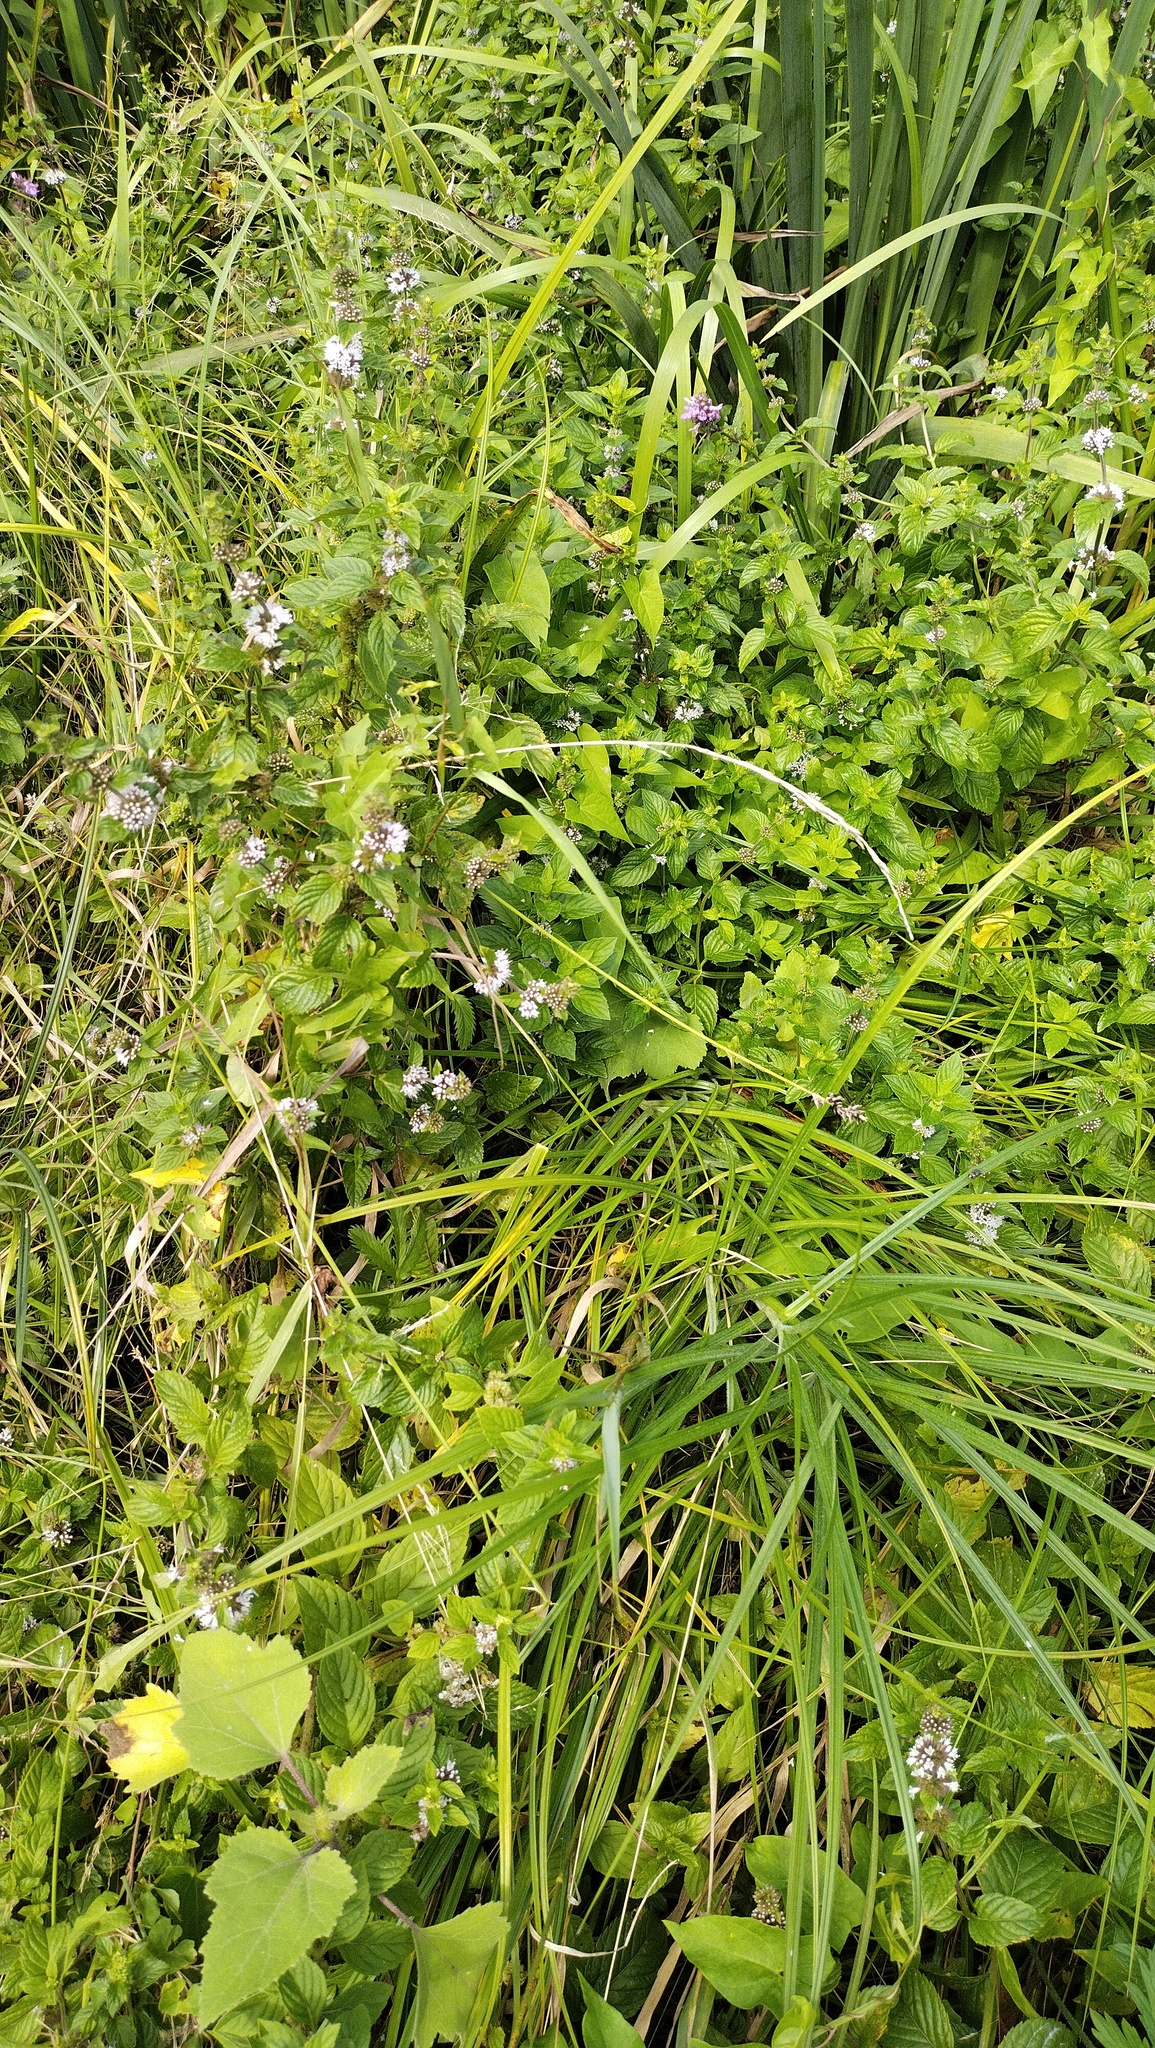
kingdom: Plantae
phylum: Tracheophyta
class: Magnoliopsida
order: Lamiales
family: Lamiaceae
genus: Mentha
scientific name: Mentha arvensis
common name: Corn mint
